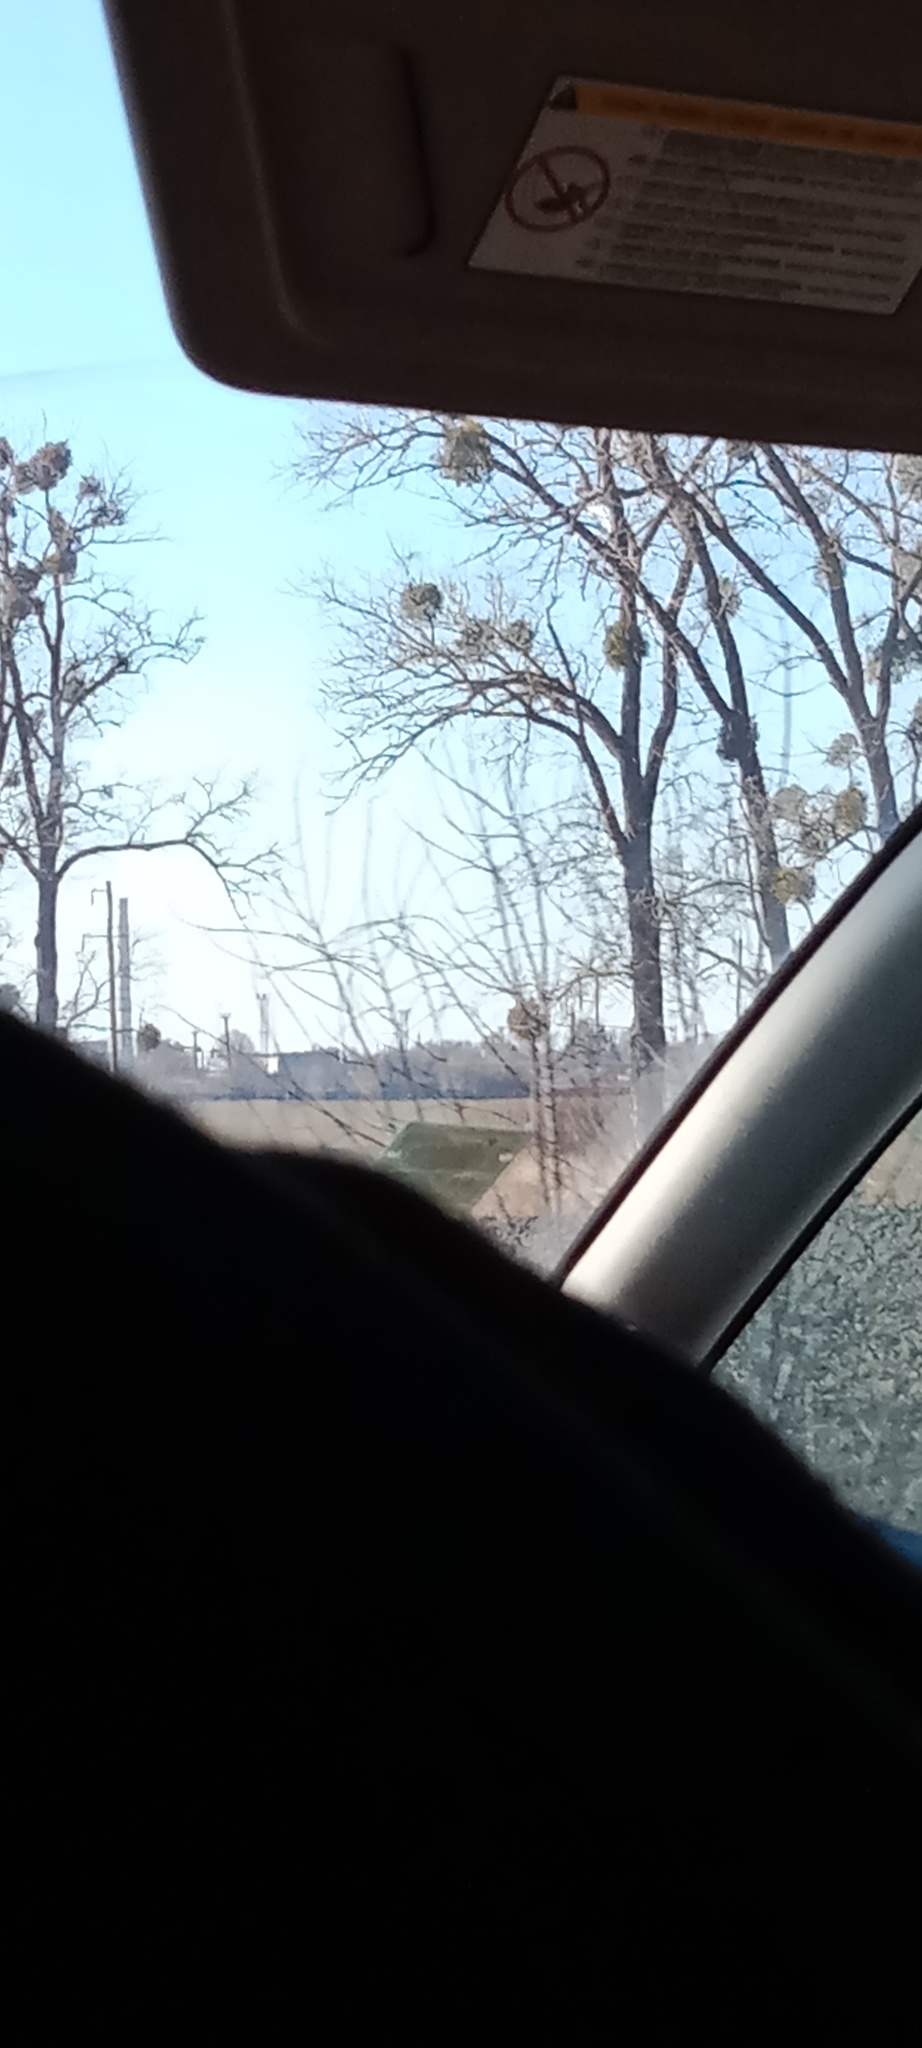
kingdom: Plantae
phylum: Tracheophyta
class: Magnoliopsida
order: Santalales
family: Viscaceae
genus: Viscum
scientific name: Viscum album
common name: Mistletoe
